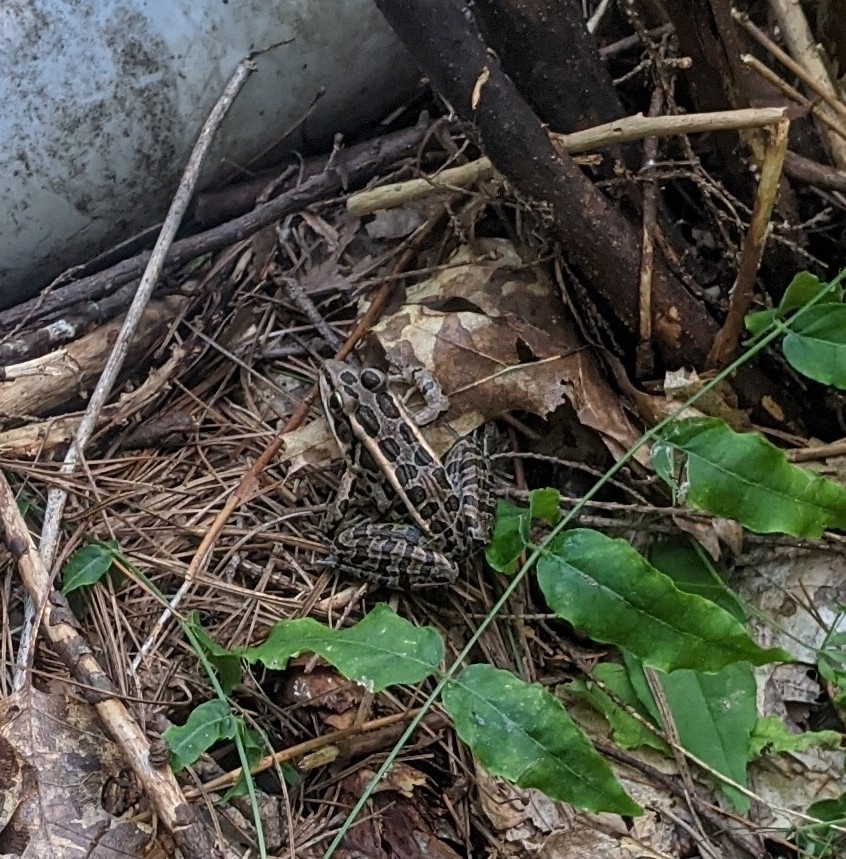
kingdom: Animalia
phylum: Chordata
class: Amphibia
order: Anura
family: Ranidae
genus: Lithobates
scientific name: Lithobates palustris
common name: Pickerel frog
